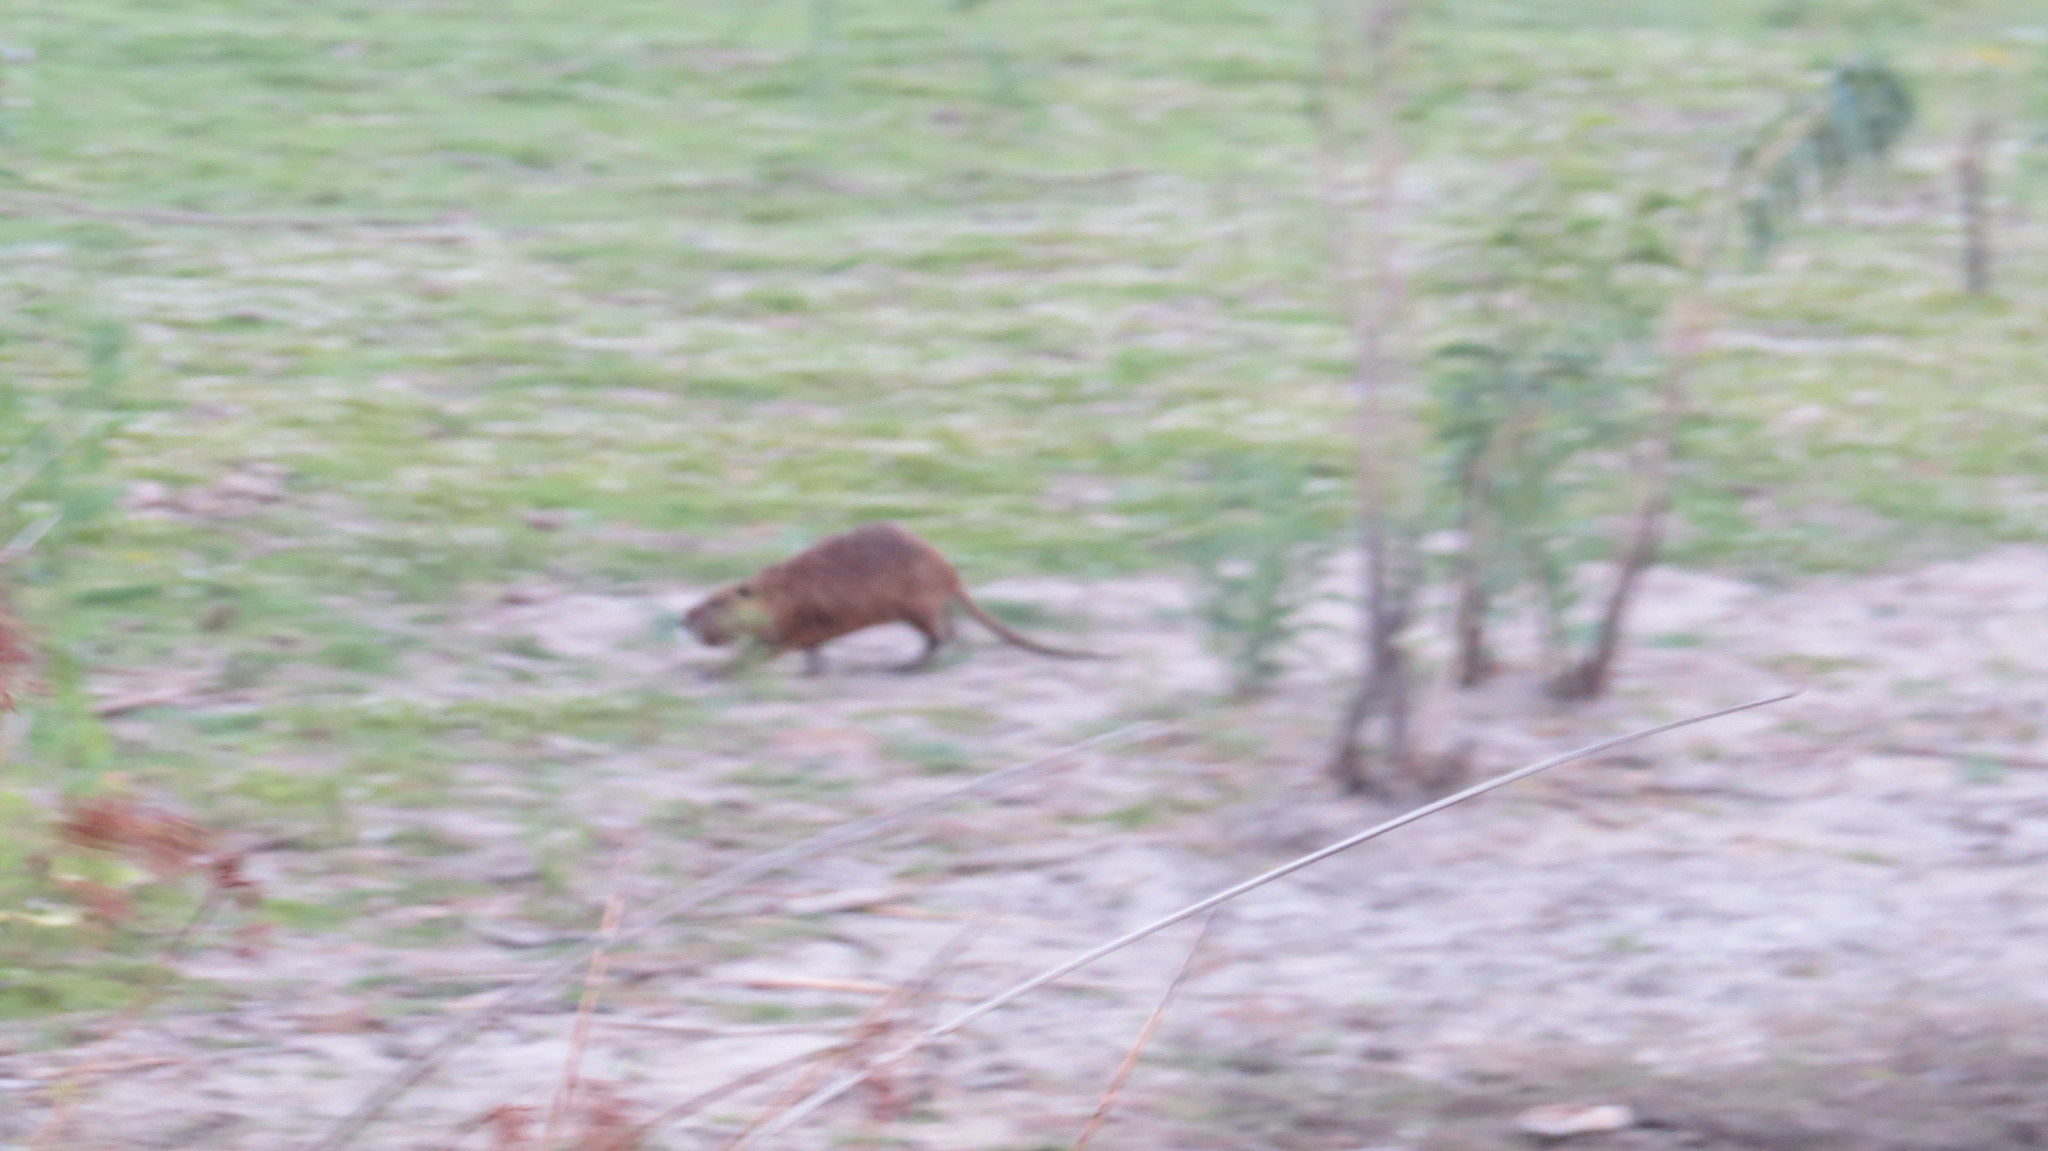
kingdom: Animalia
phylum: Chordata
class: Mammalia
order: Rodentia
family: Myocastoridae
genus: Myocastor
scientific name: Myocastor coypus
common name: Coypu
